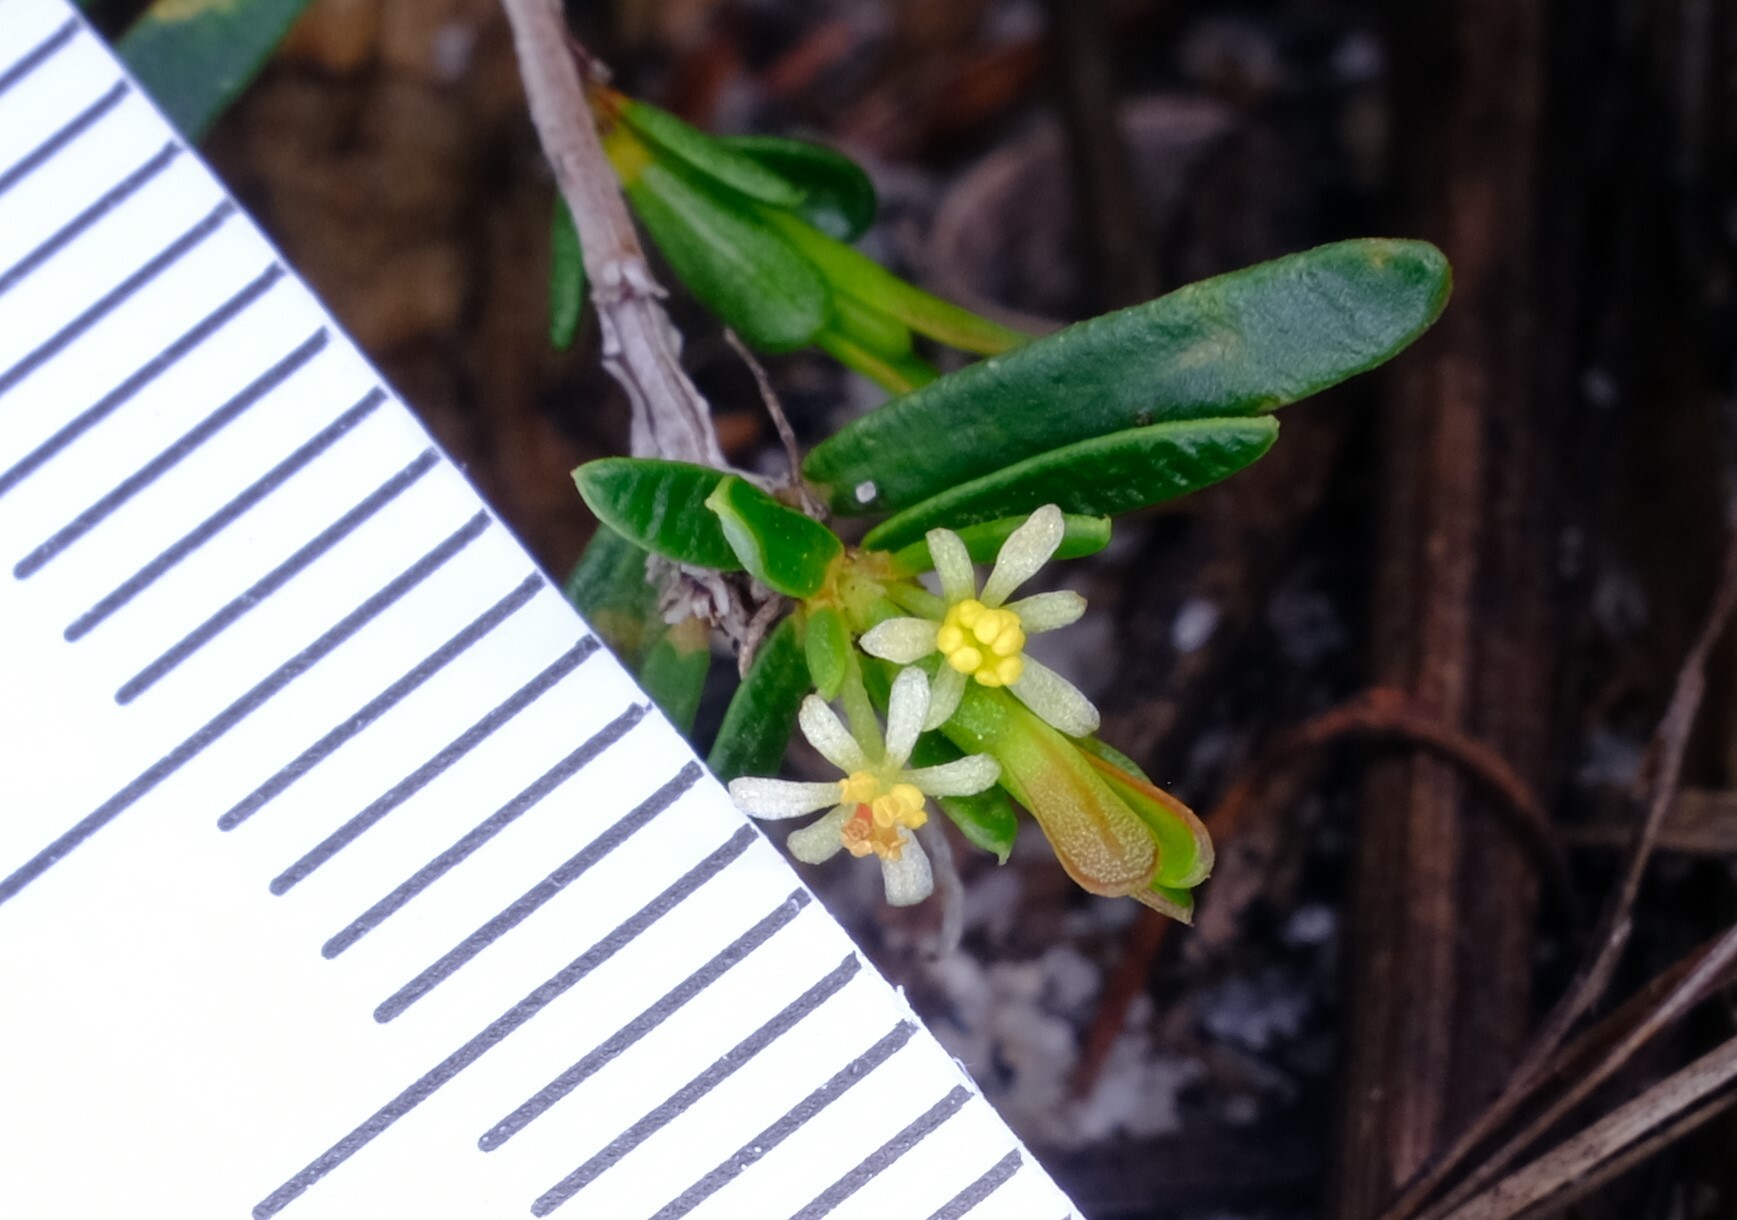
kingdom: Plantae
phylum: Tracheophyta
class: Magnoliopsida
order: Malpighiales
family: Picrodendraceae
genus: Pseudanthus
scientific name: Pseudanthus orientalis
